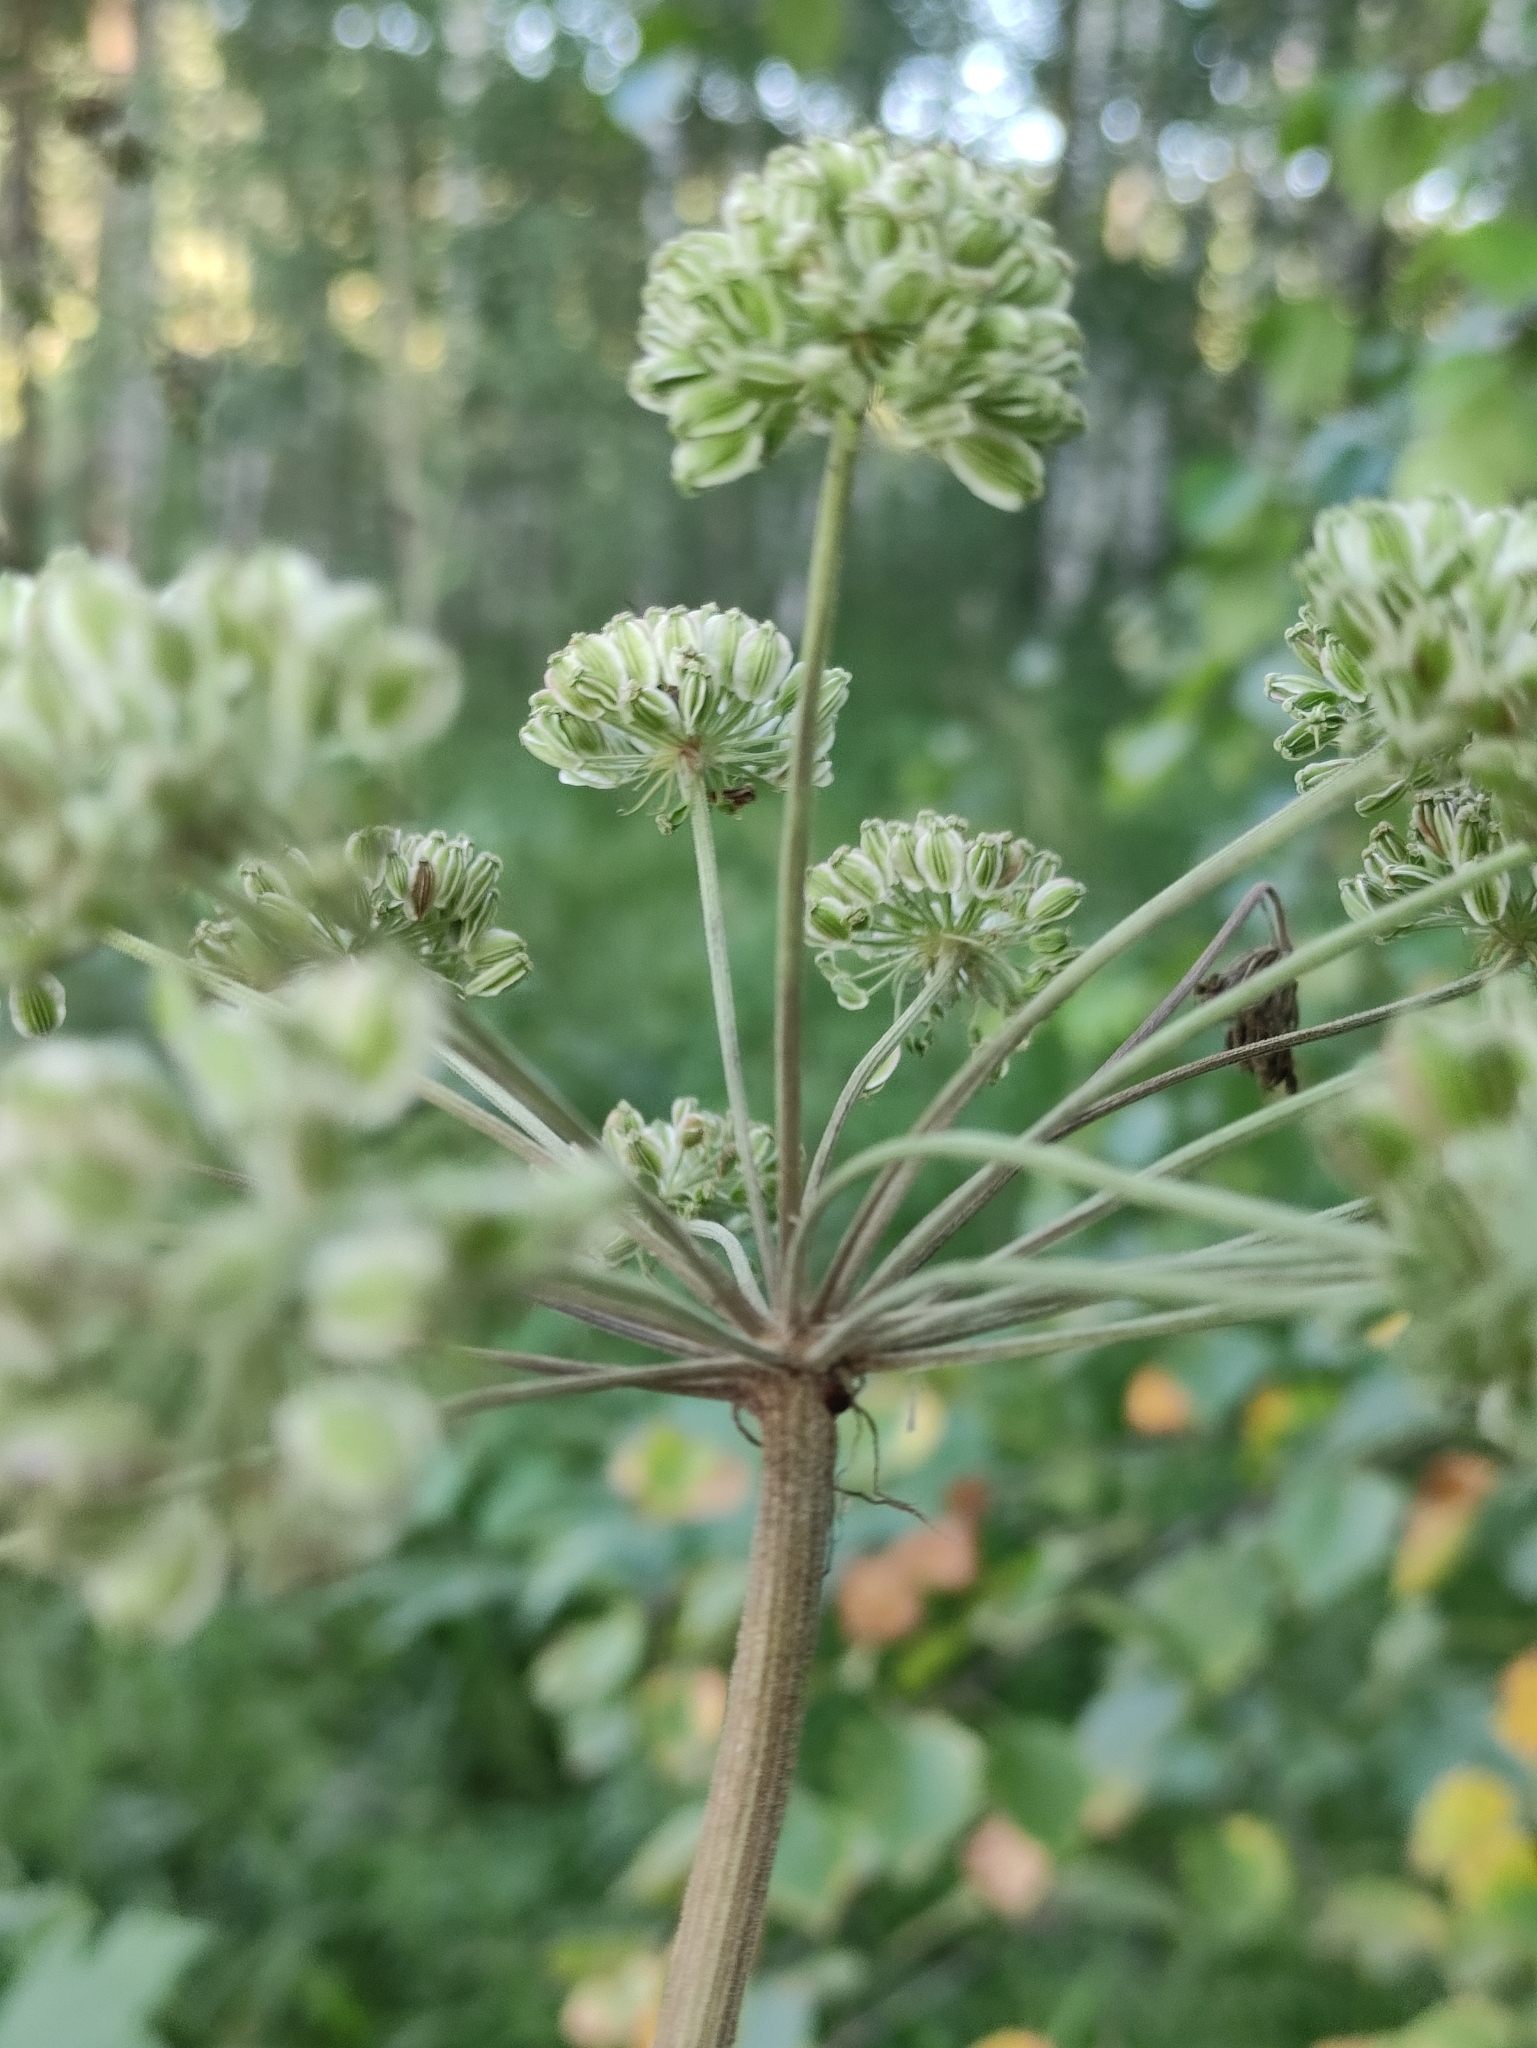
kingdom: Plantae
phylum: Tracheophyta
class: Magnoliopsida
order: Apiales
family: Apiaceae
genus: Angelica
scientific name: Angelica sylvestris
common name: Wild angelica
